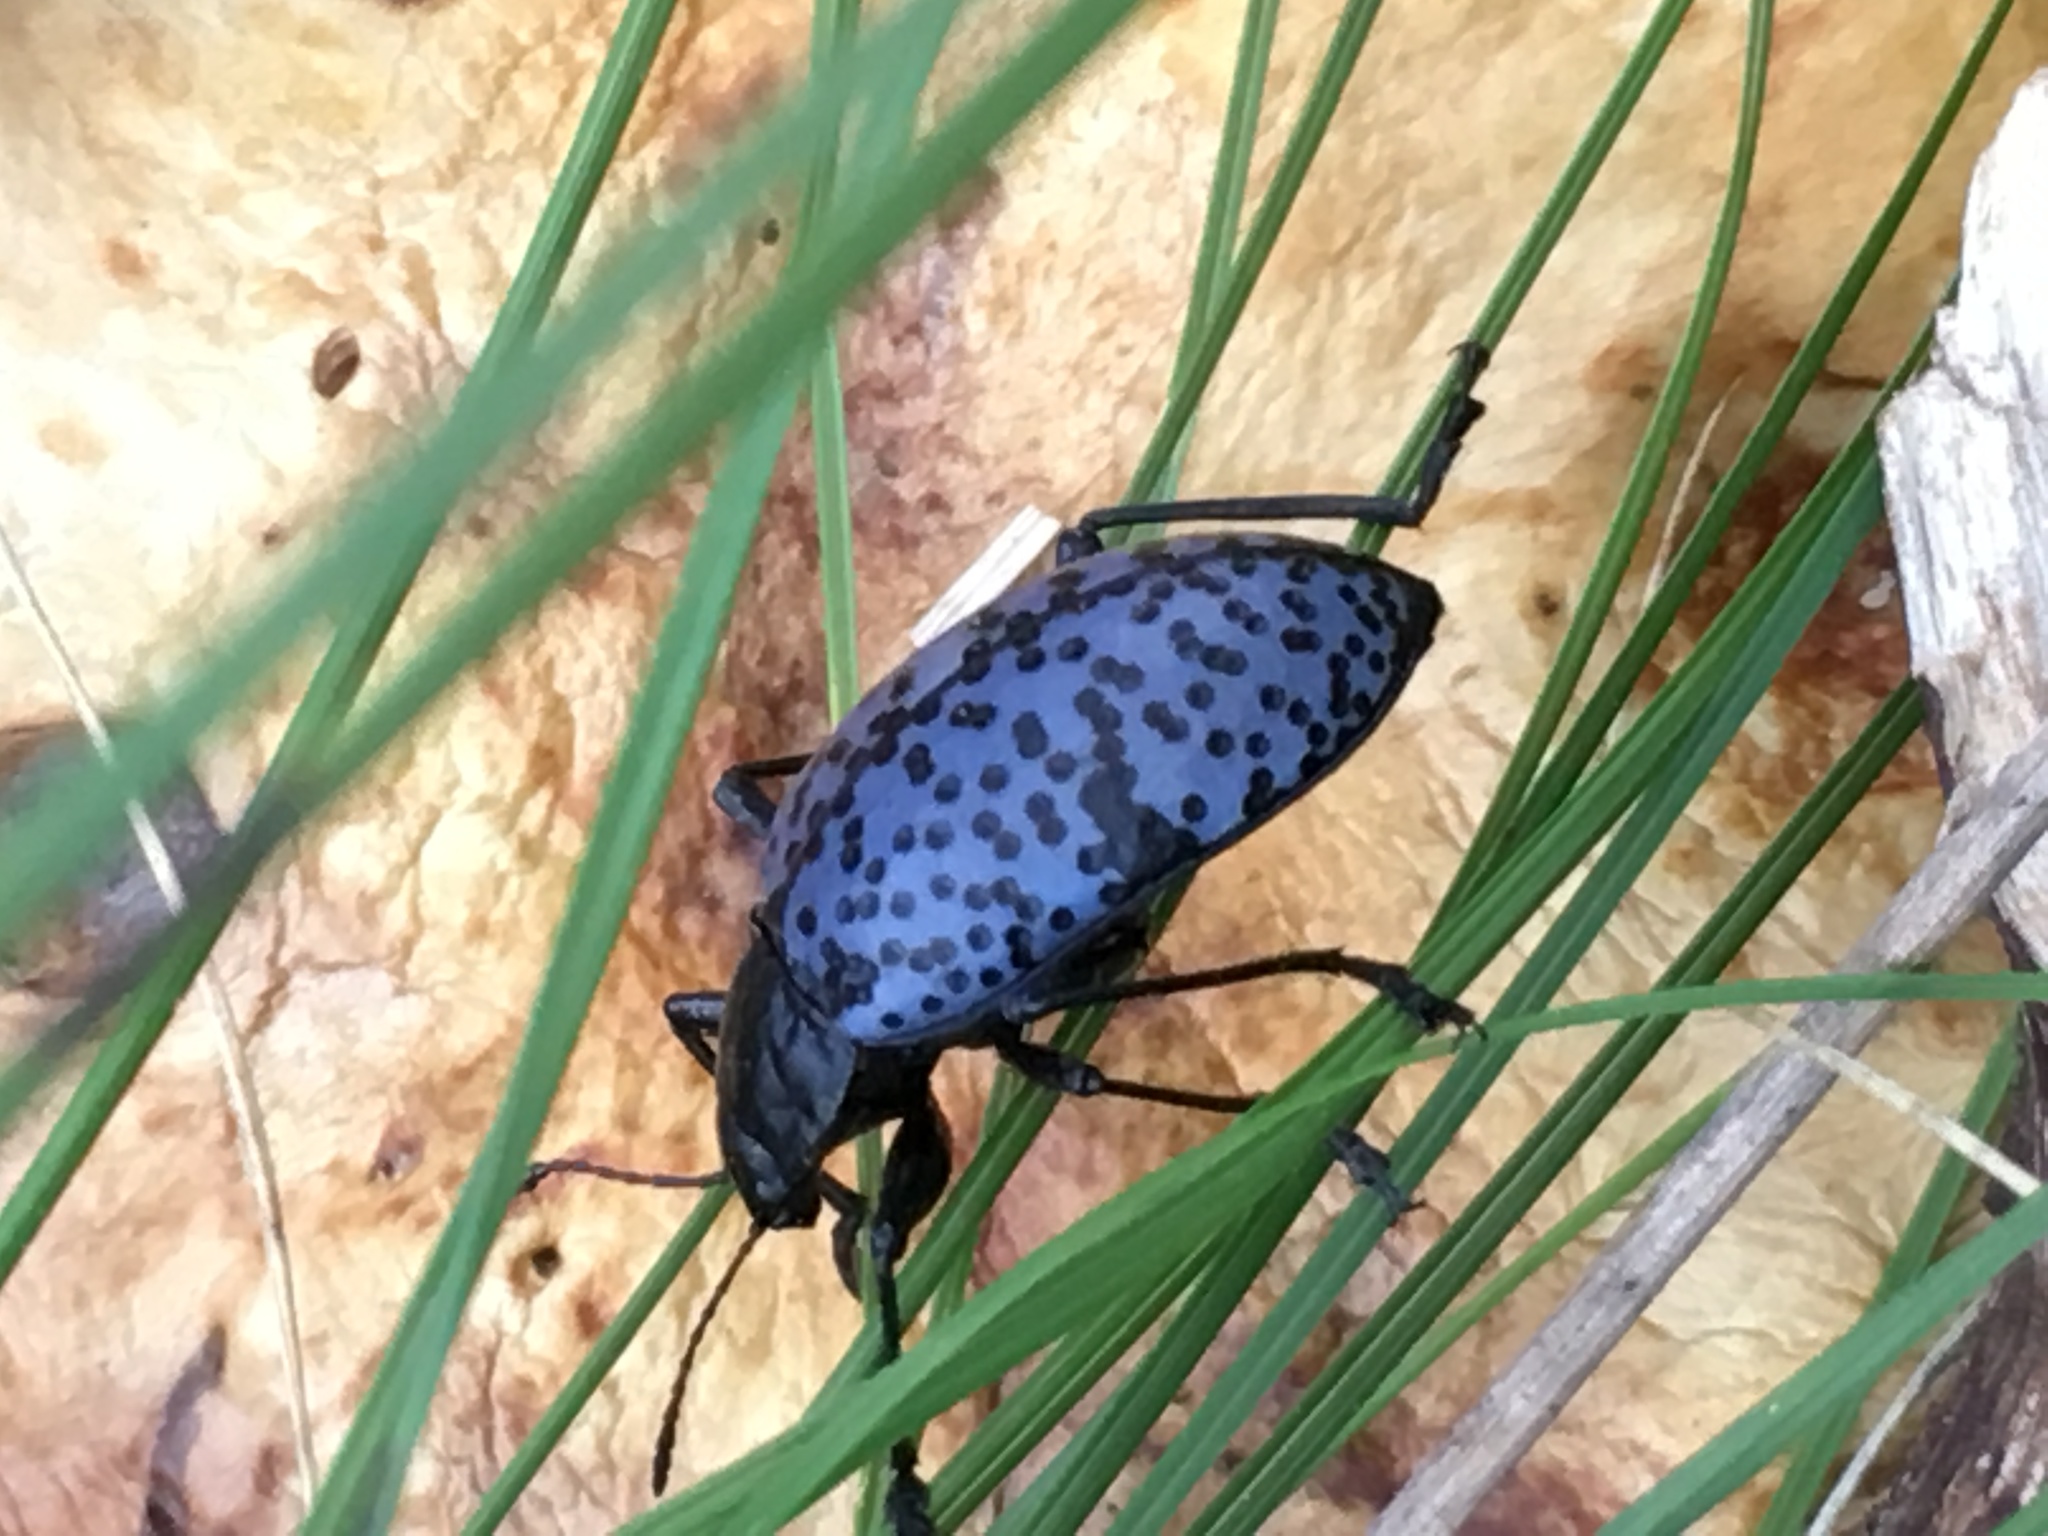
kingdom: Animalia
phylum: Arthropoda
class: Insecta
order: Coleoptera
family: Erotylidae
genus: Gibbifer
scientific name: Gibbifer californicus
